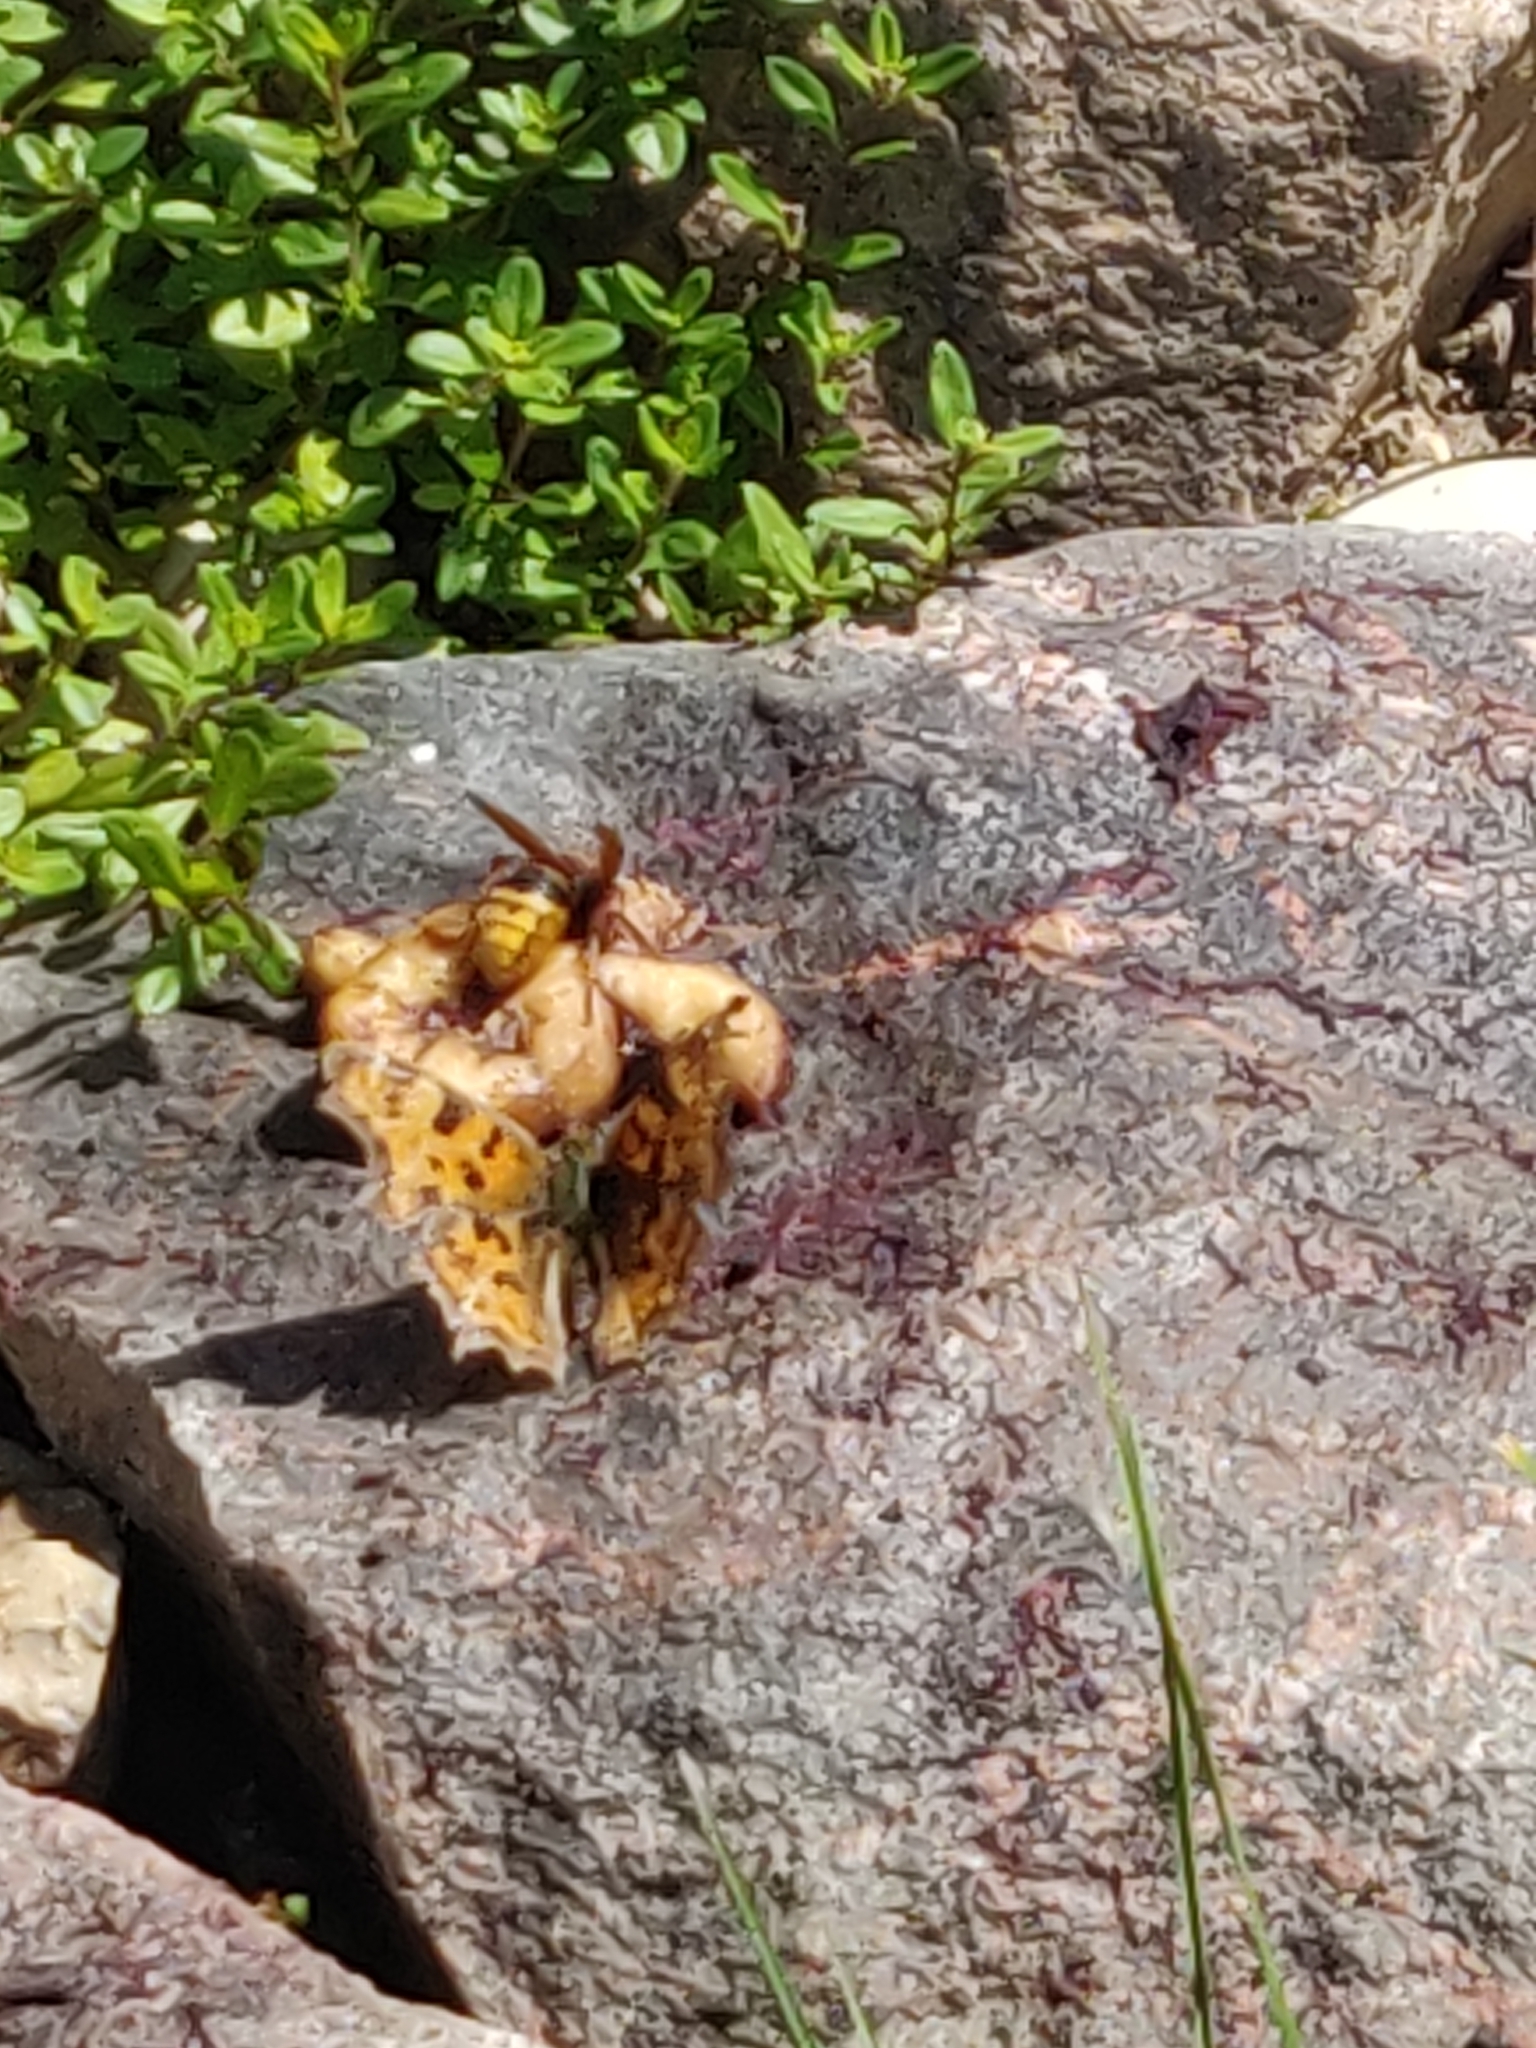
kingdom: Animalia
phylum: Arthropoda
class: Insecta
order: Lepidoptera
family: Nymphalidae
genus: Polygonia
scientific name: Polygonia c-album
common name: Comma
